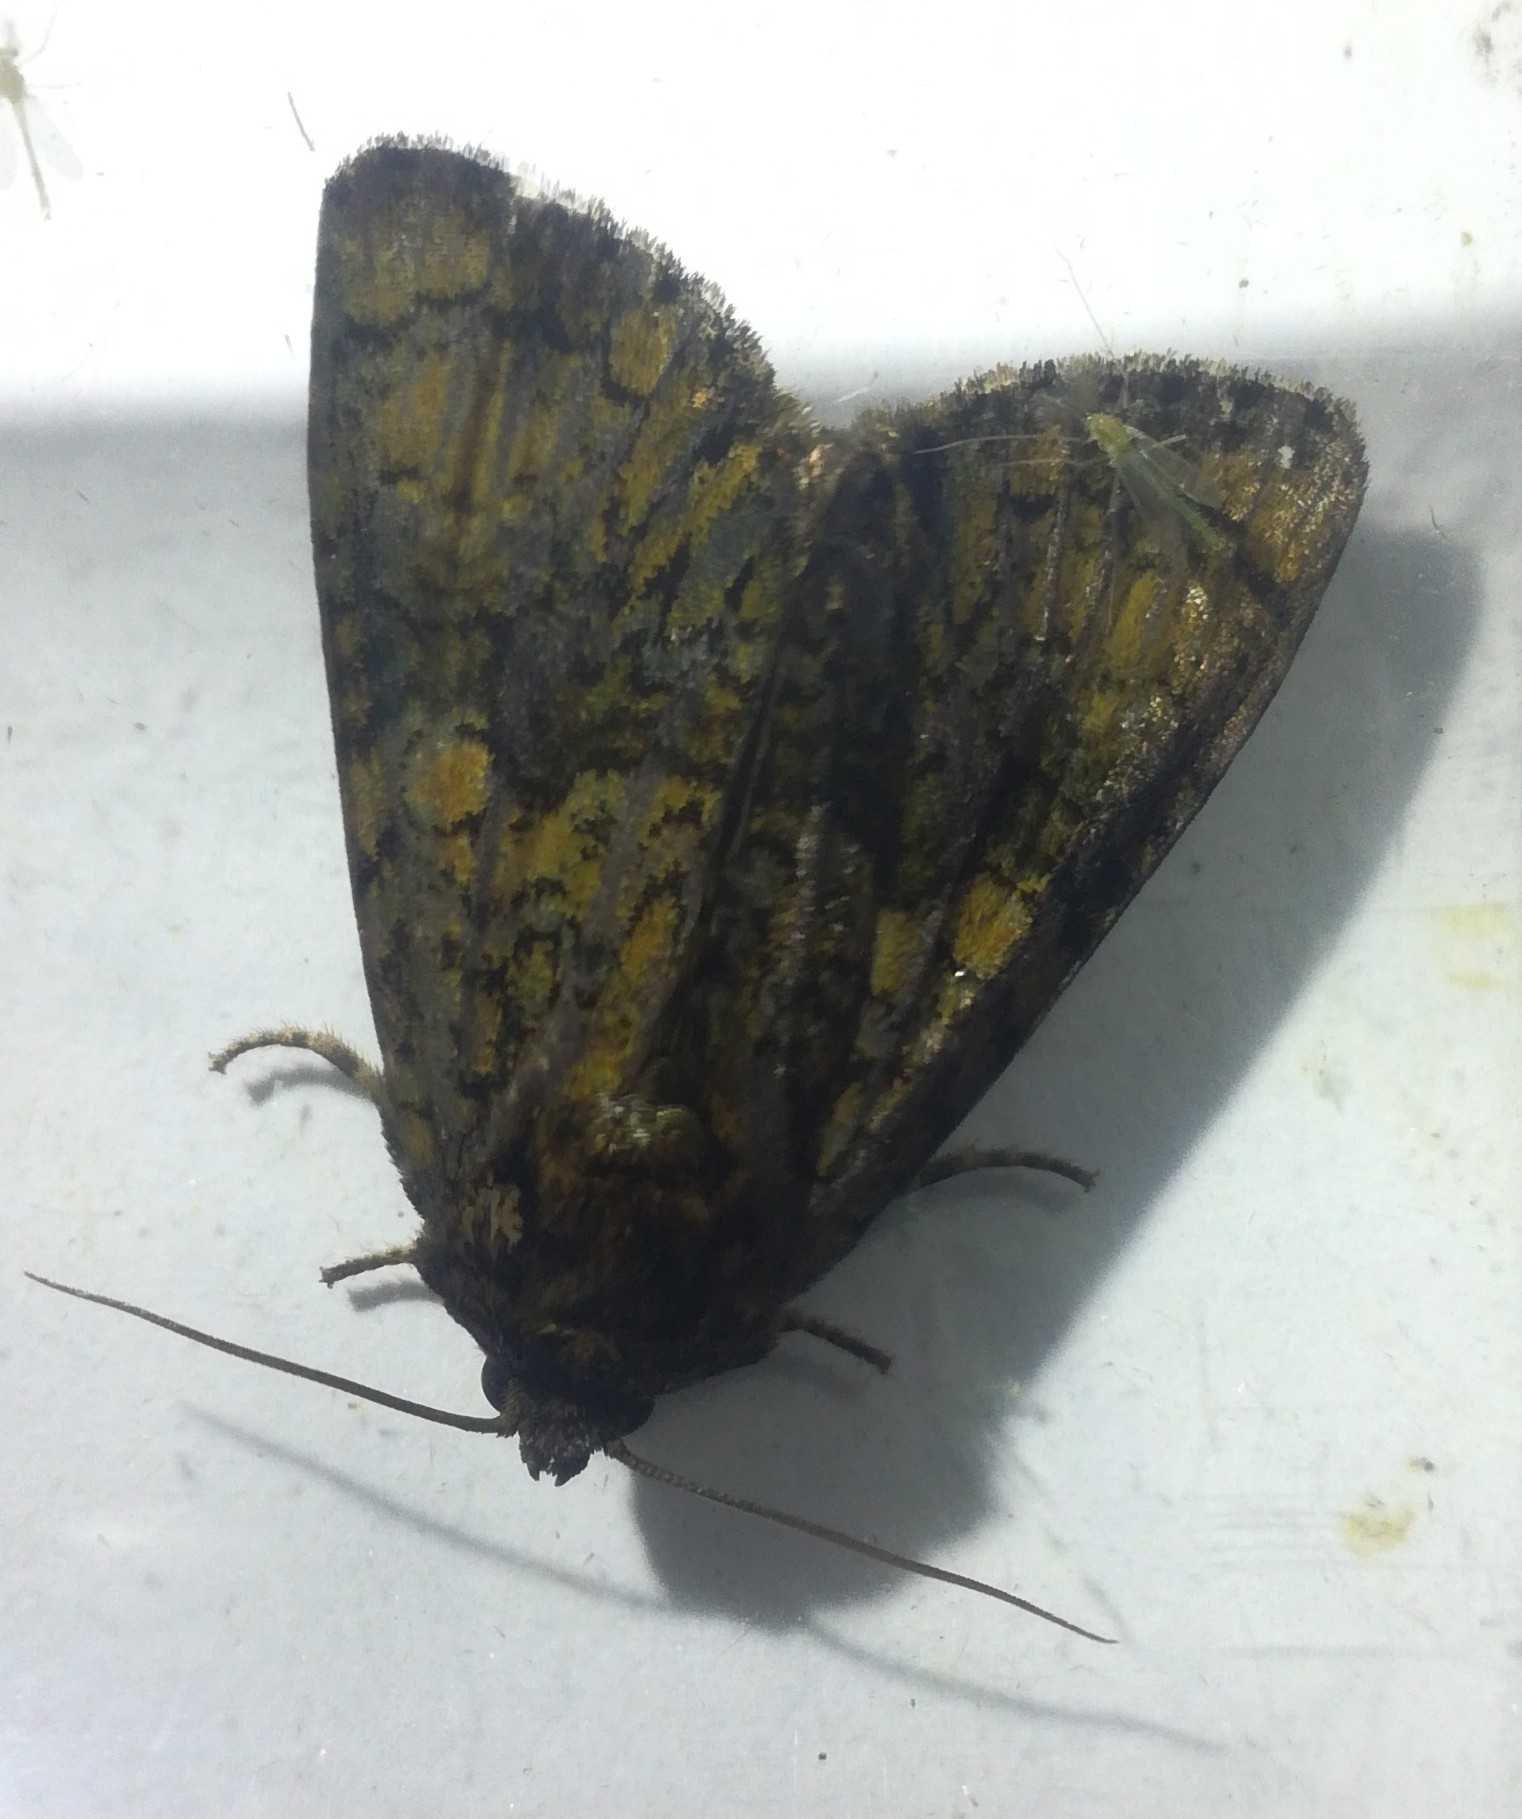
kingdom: Animalia
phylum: Arthropoda
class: Insecta
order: Lepidoptera
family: Noctuidae
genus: Craniophora
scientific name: Craniophora ligustri
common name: Coronet
